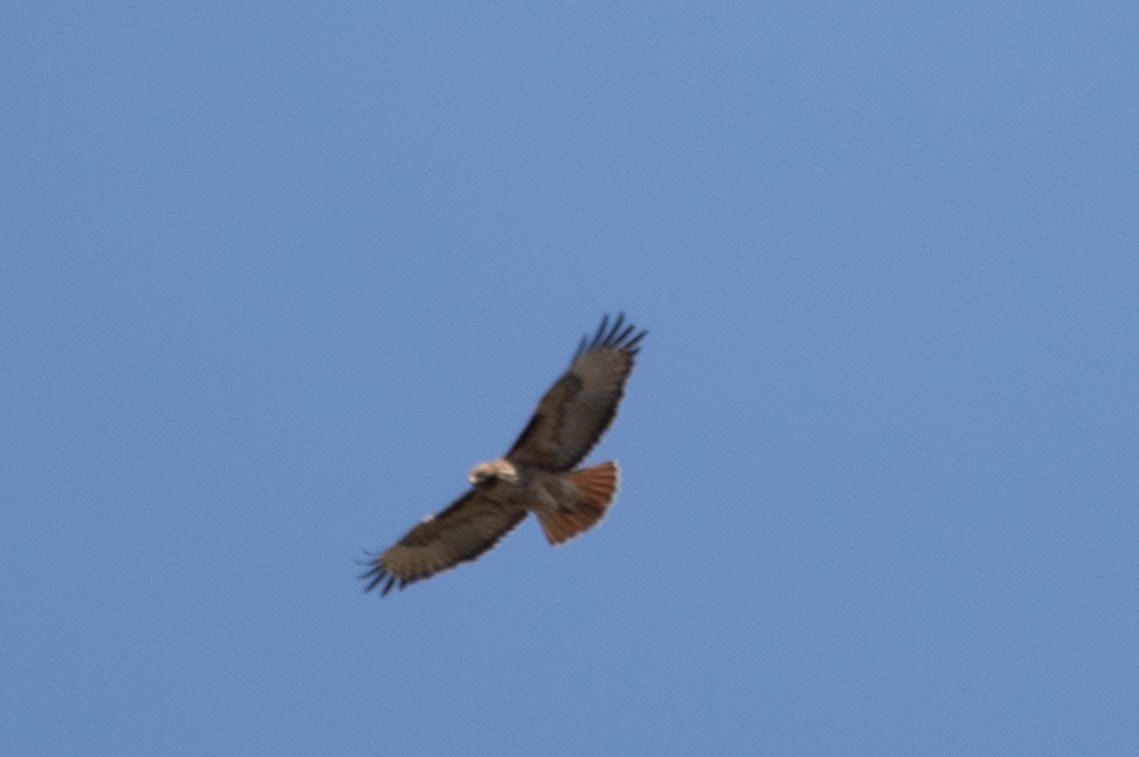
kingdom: Animalia
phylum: Chordata
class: Aves
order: Accipitriformes
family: Accipitridae
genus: Buteo
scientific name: Buteo jamaicensis
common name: Red-tailed hawk
